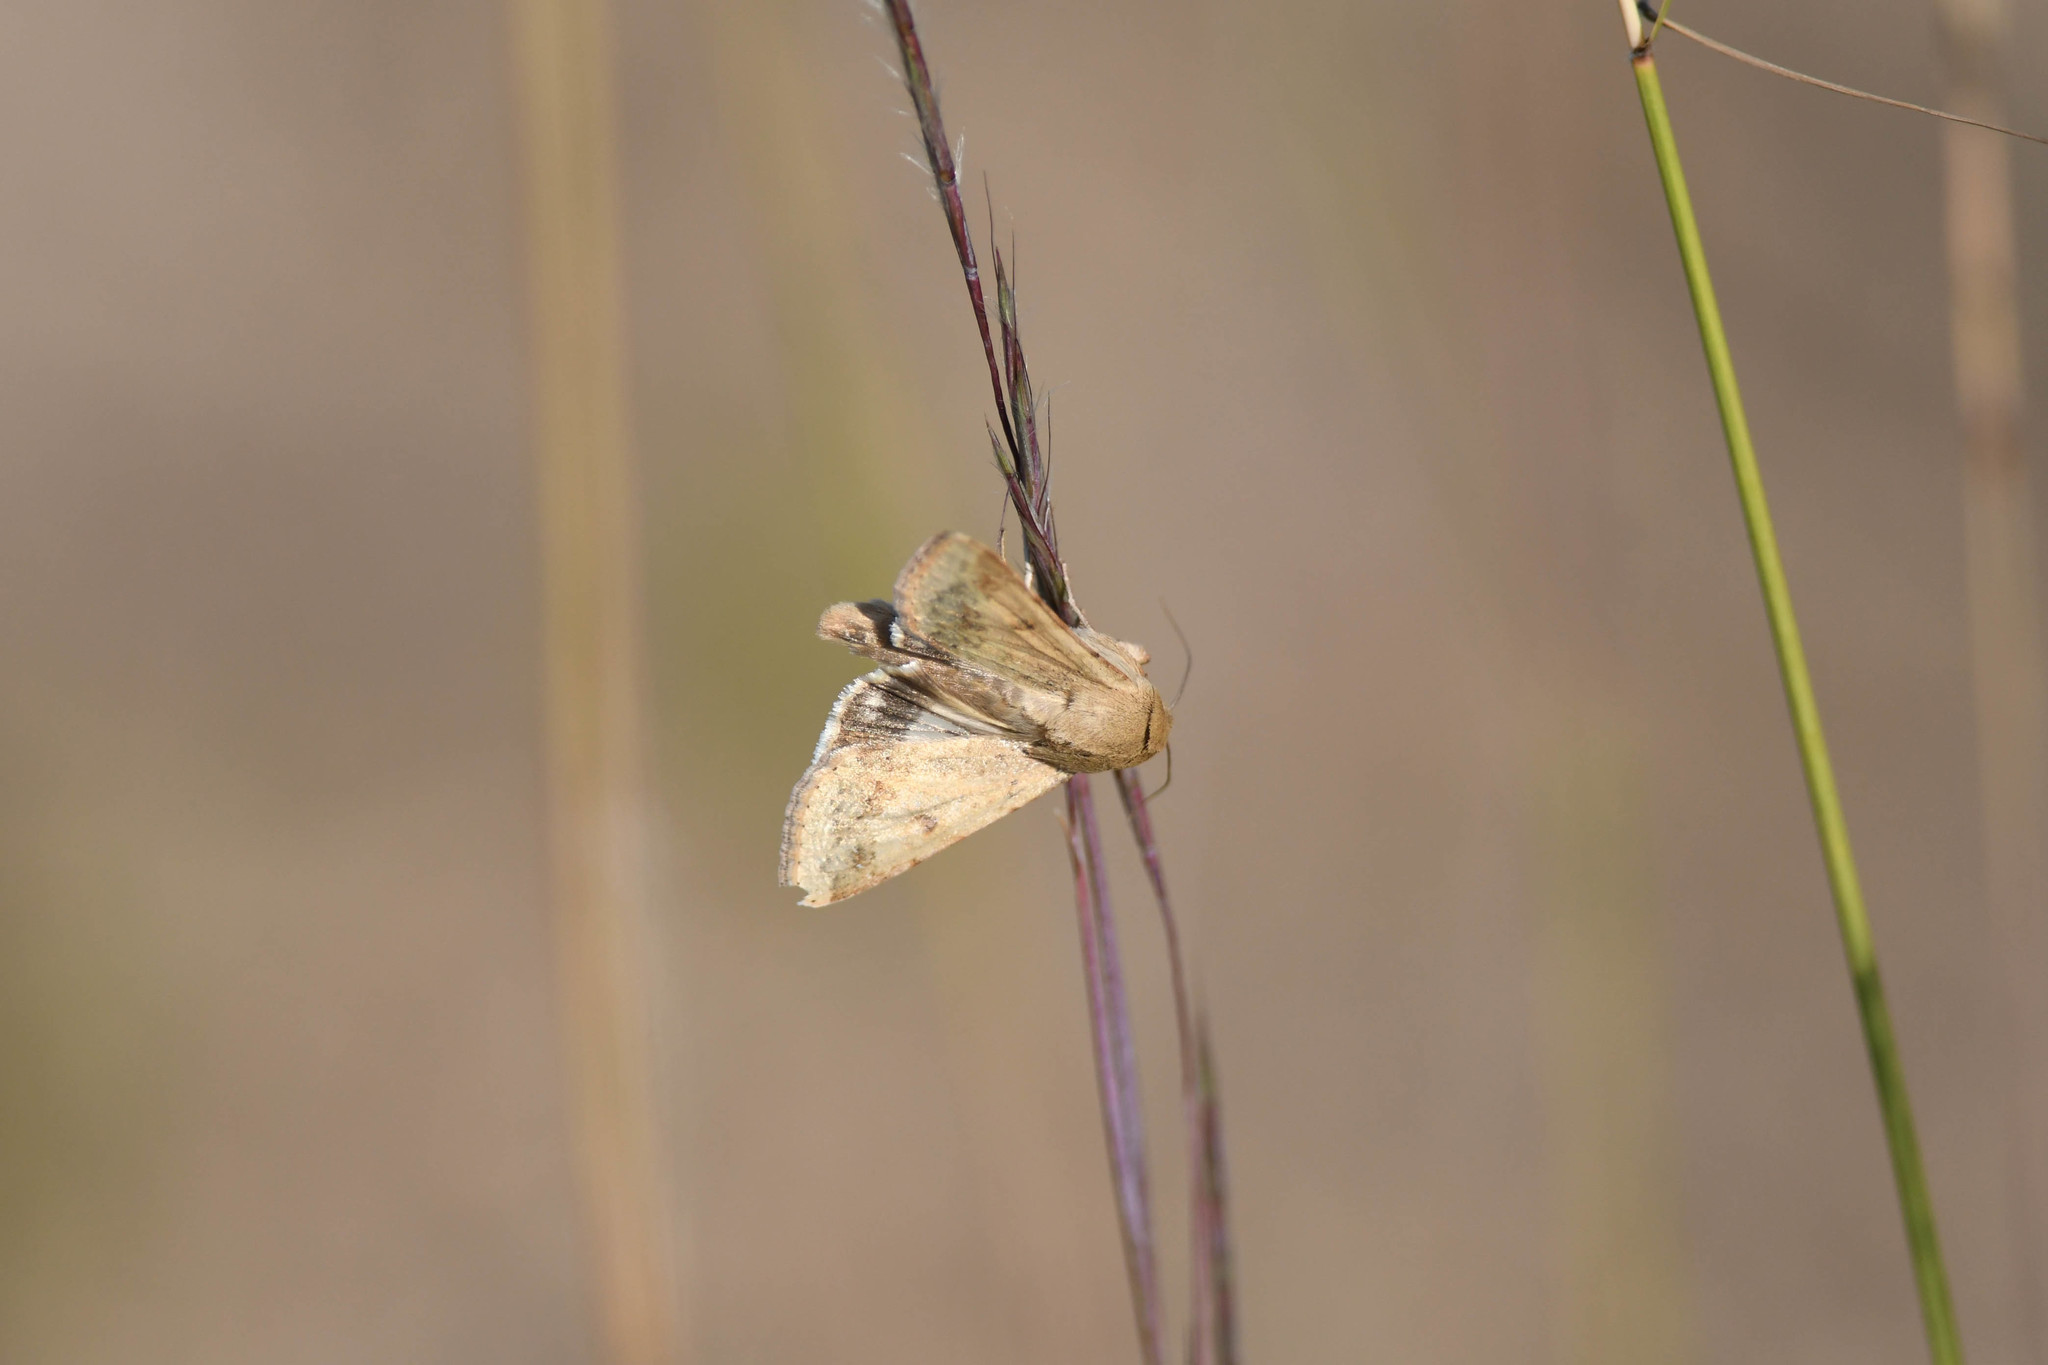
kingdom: Animalia
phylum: Arthropoda
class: Insecta
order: Lepidoptera
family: Noctuidae
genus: Helicoverpa
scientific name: Helicoverpa zea
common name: Bollworm
